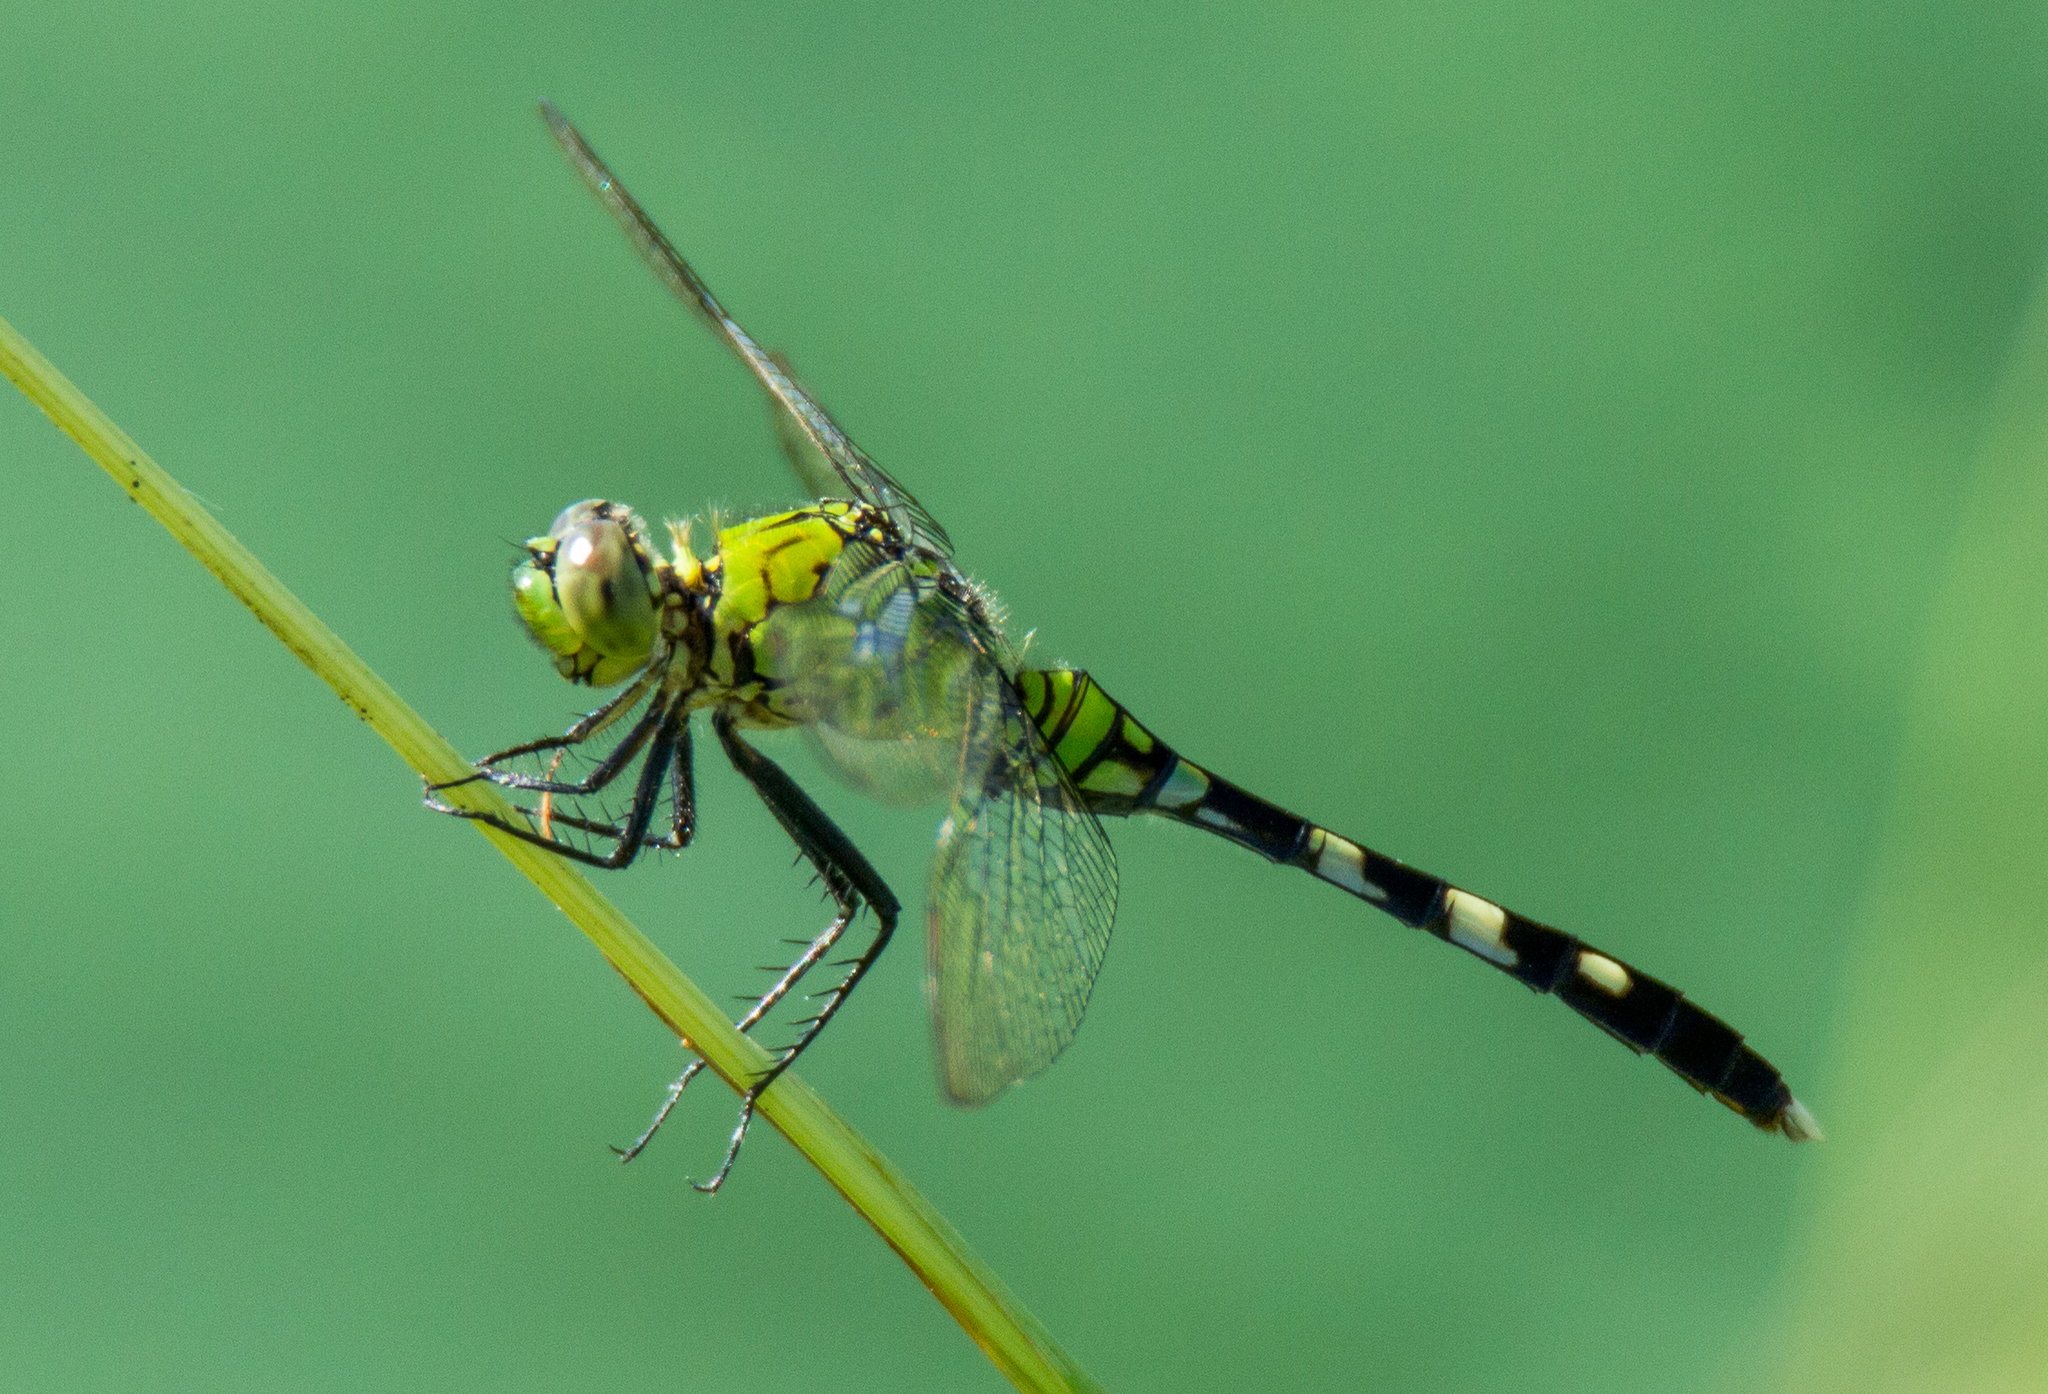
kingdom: Animalia
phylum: Arthropoda
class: Insecta
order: Odonata
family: Libellulidae
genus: Erythemis
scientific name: Erythemis simplicicollis
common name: Eastern pondhawk
